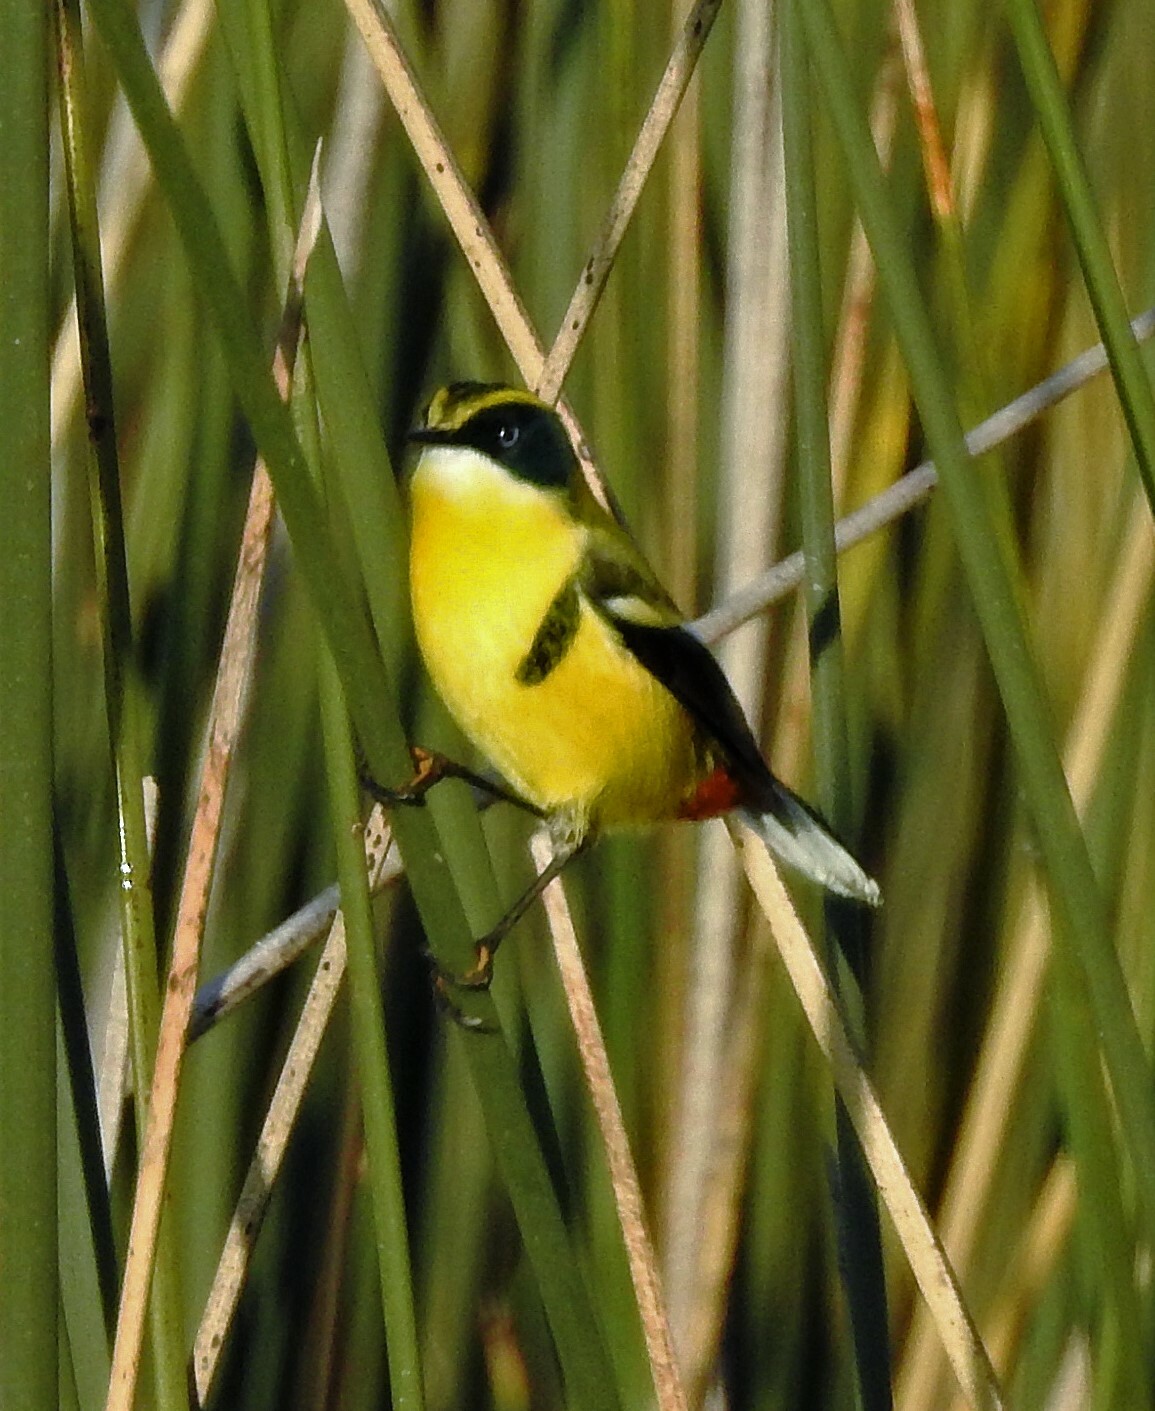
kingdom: Animalia
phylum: Chordata
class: Aves
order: Passeriformes
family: Tyrannidae
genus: Tachuris
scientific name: Tachuris rubrigastra
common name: Many-colored rush tyrant
